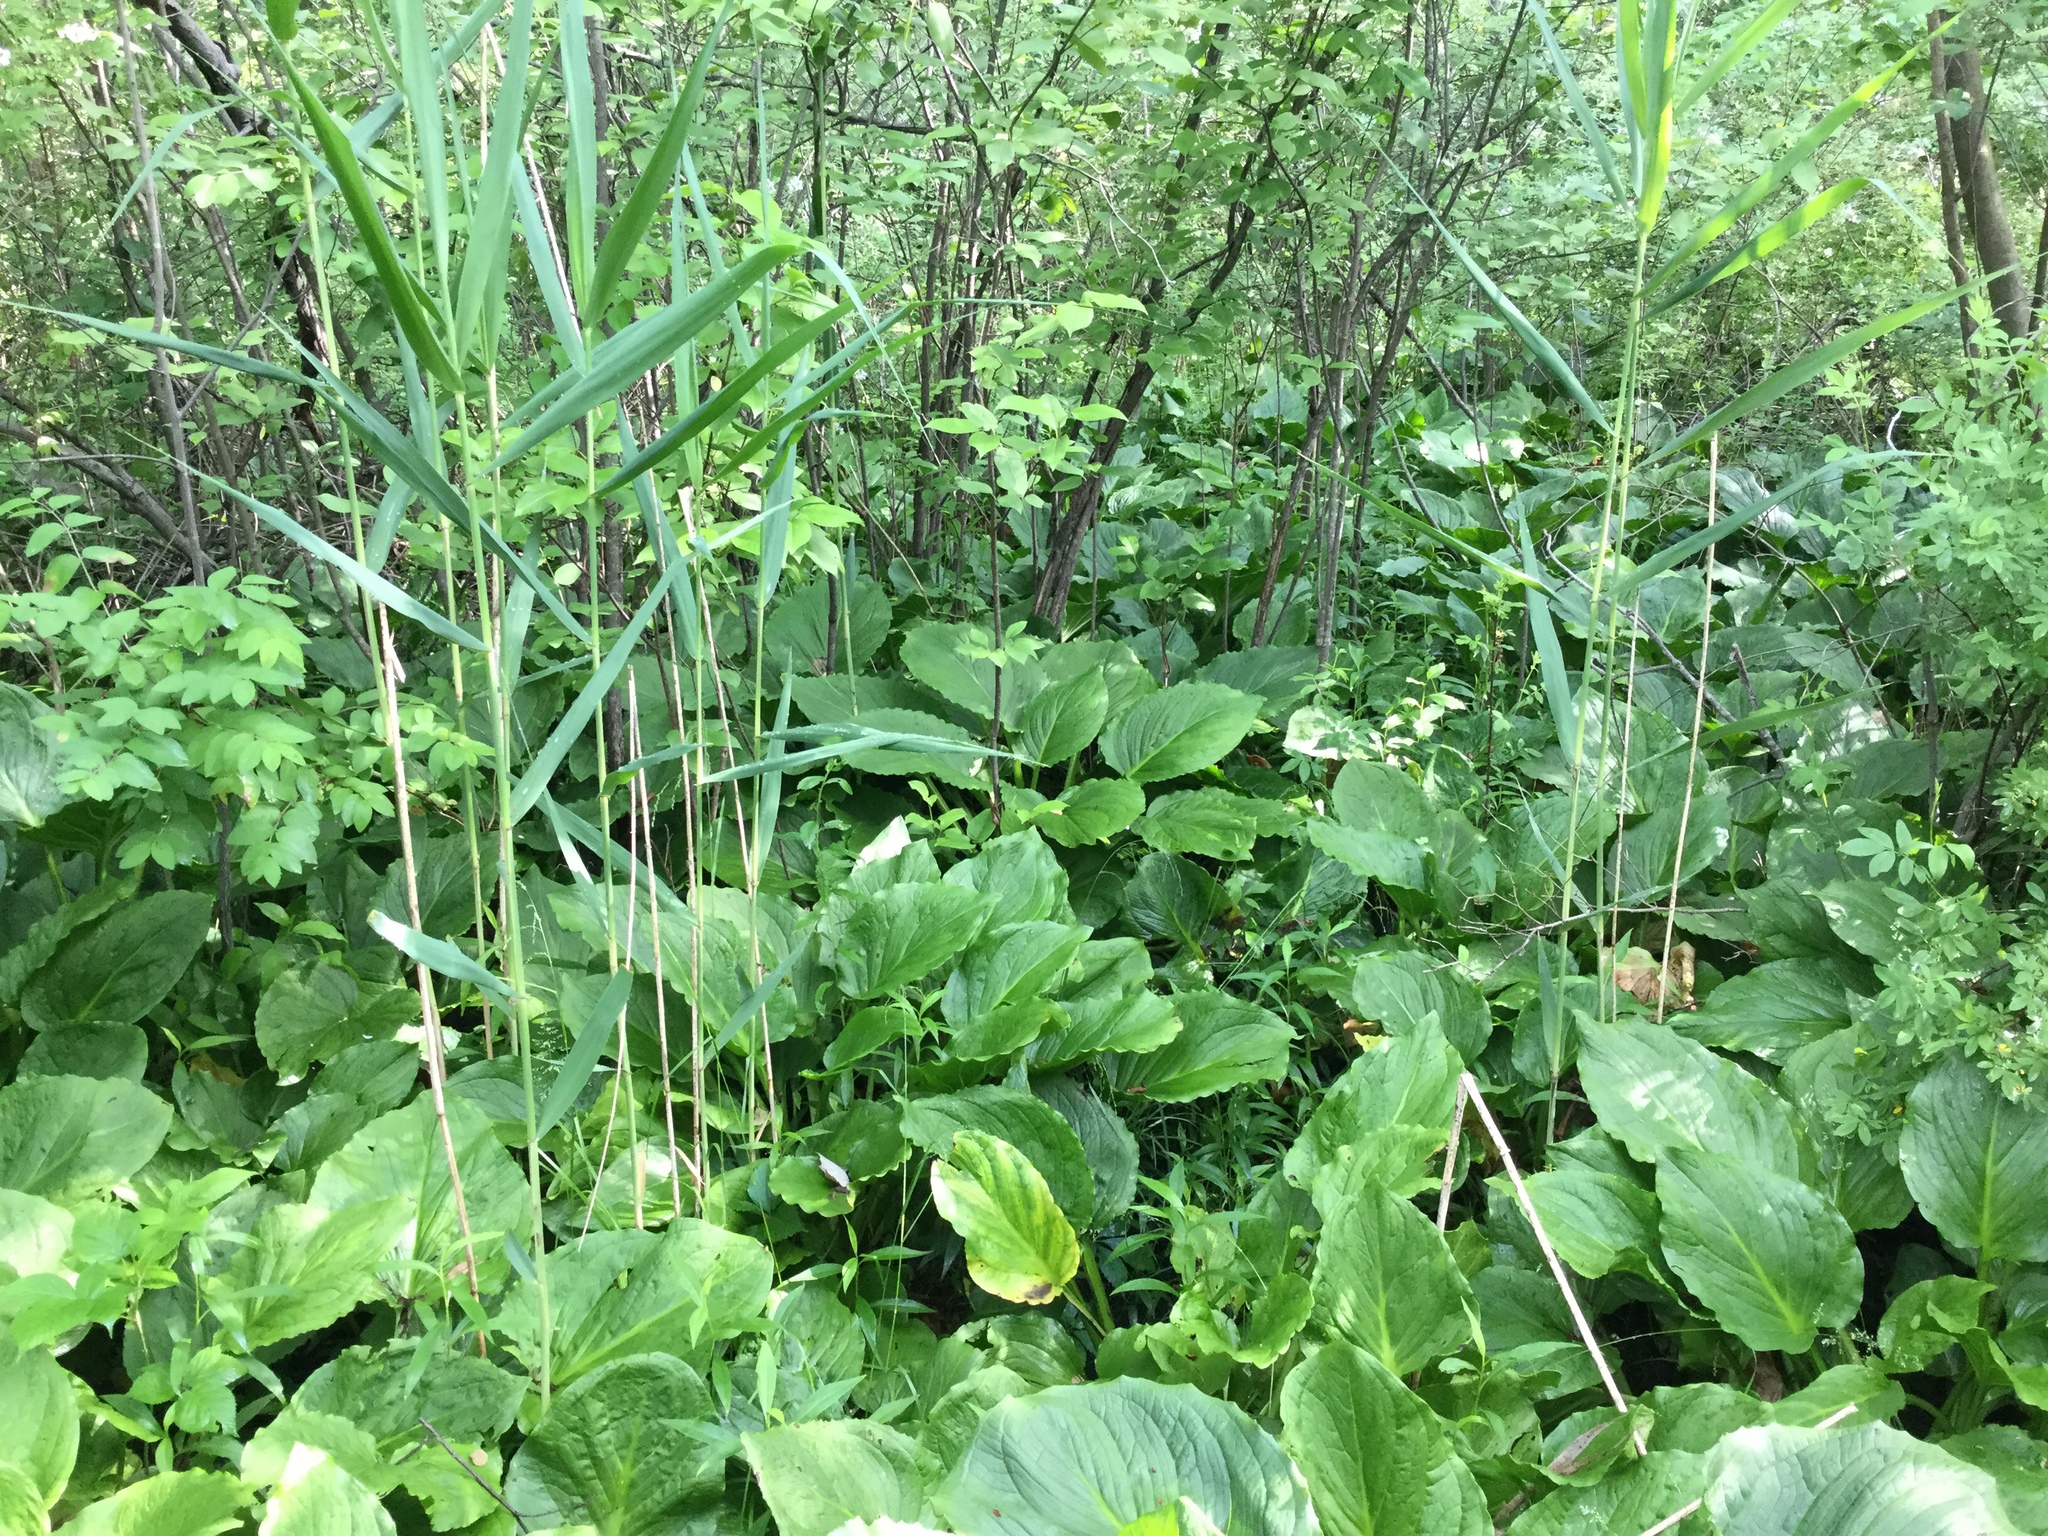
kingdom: Plantae
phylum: Tracheophyta
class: Liliopsida
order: Poales
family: Poaceae
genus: Phragmites
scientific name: Phragmites australis
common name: Common reed
